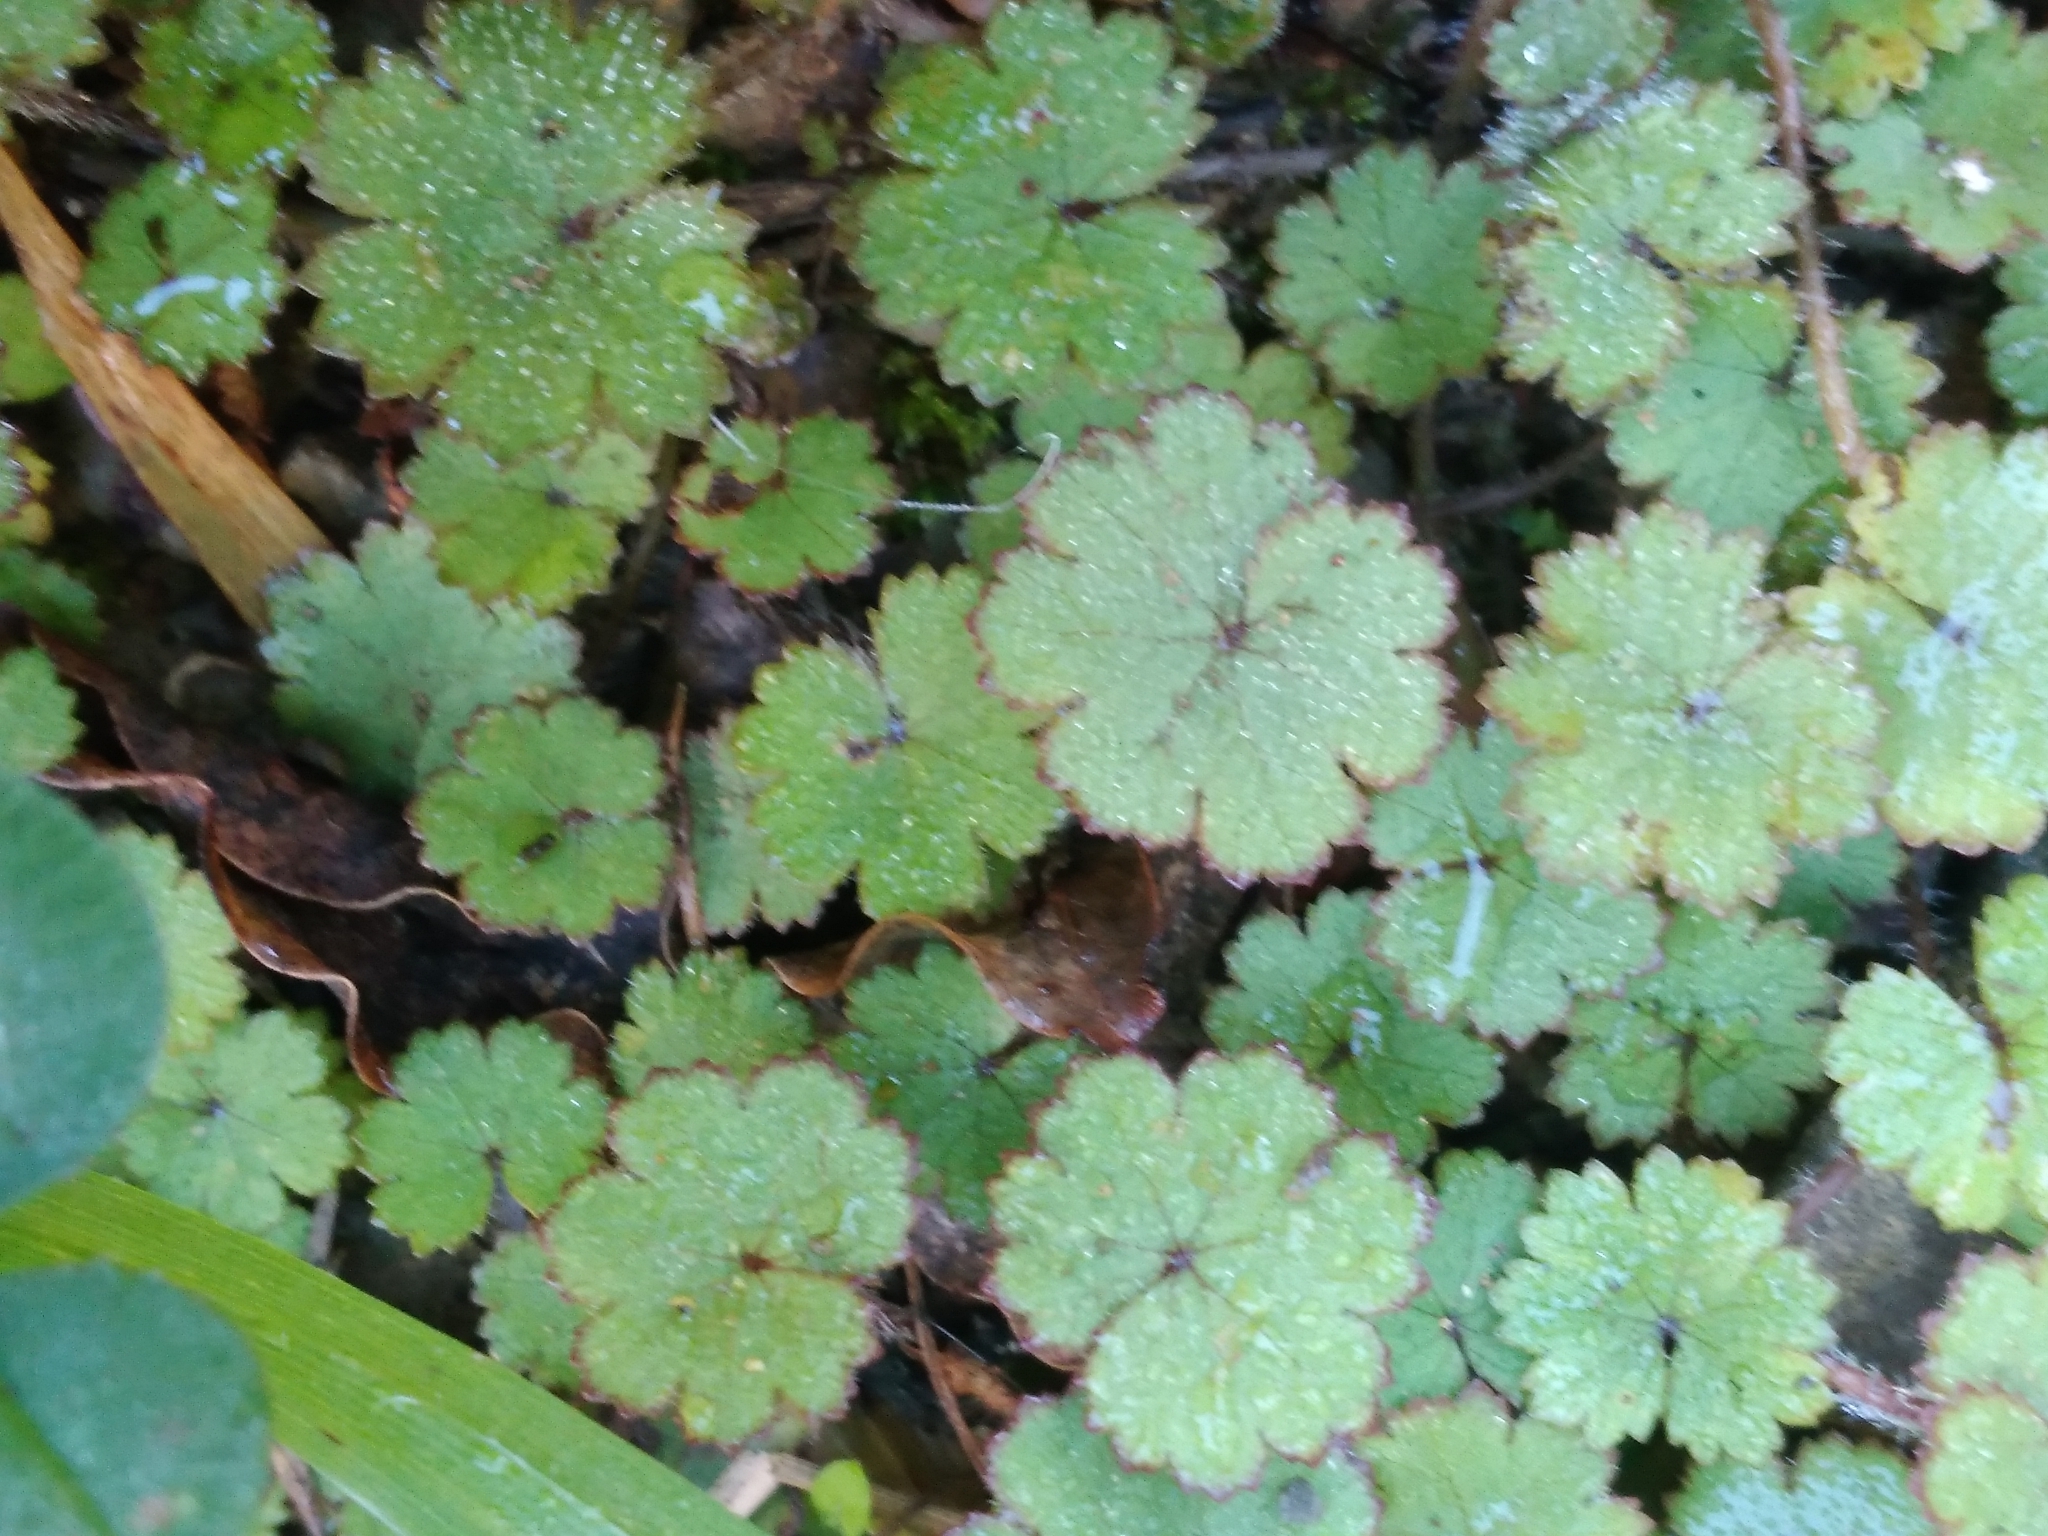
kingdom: Plantae
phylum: Tracheophyta
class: Magnoliopsida
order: Apiales
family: Araliaceae
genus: Hydrocotyle
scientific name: Hydrocotyle moschata
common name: Hairy pennywort
